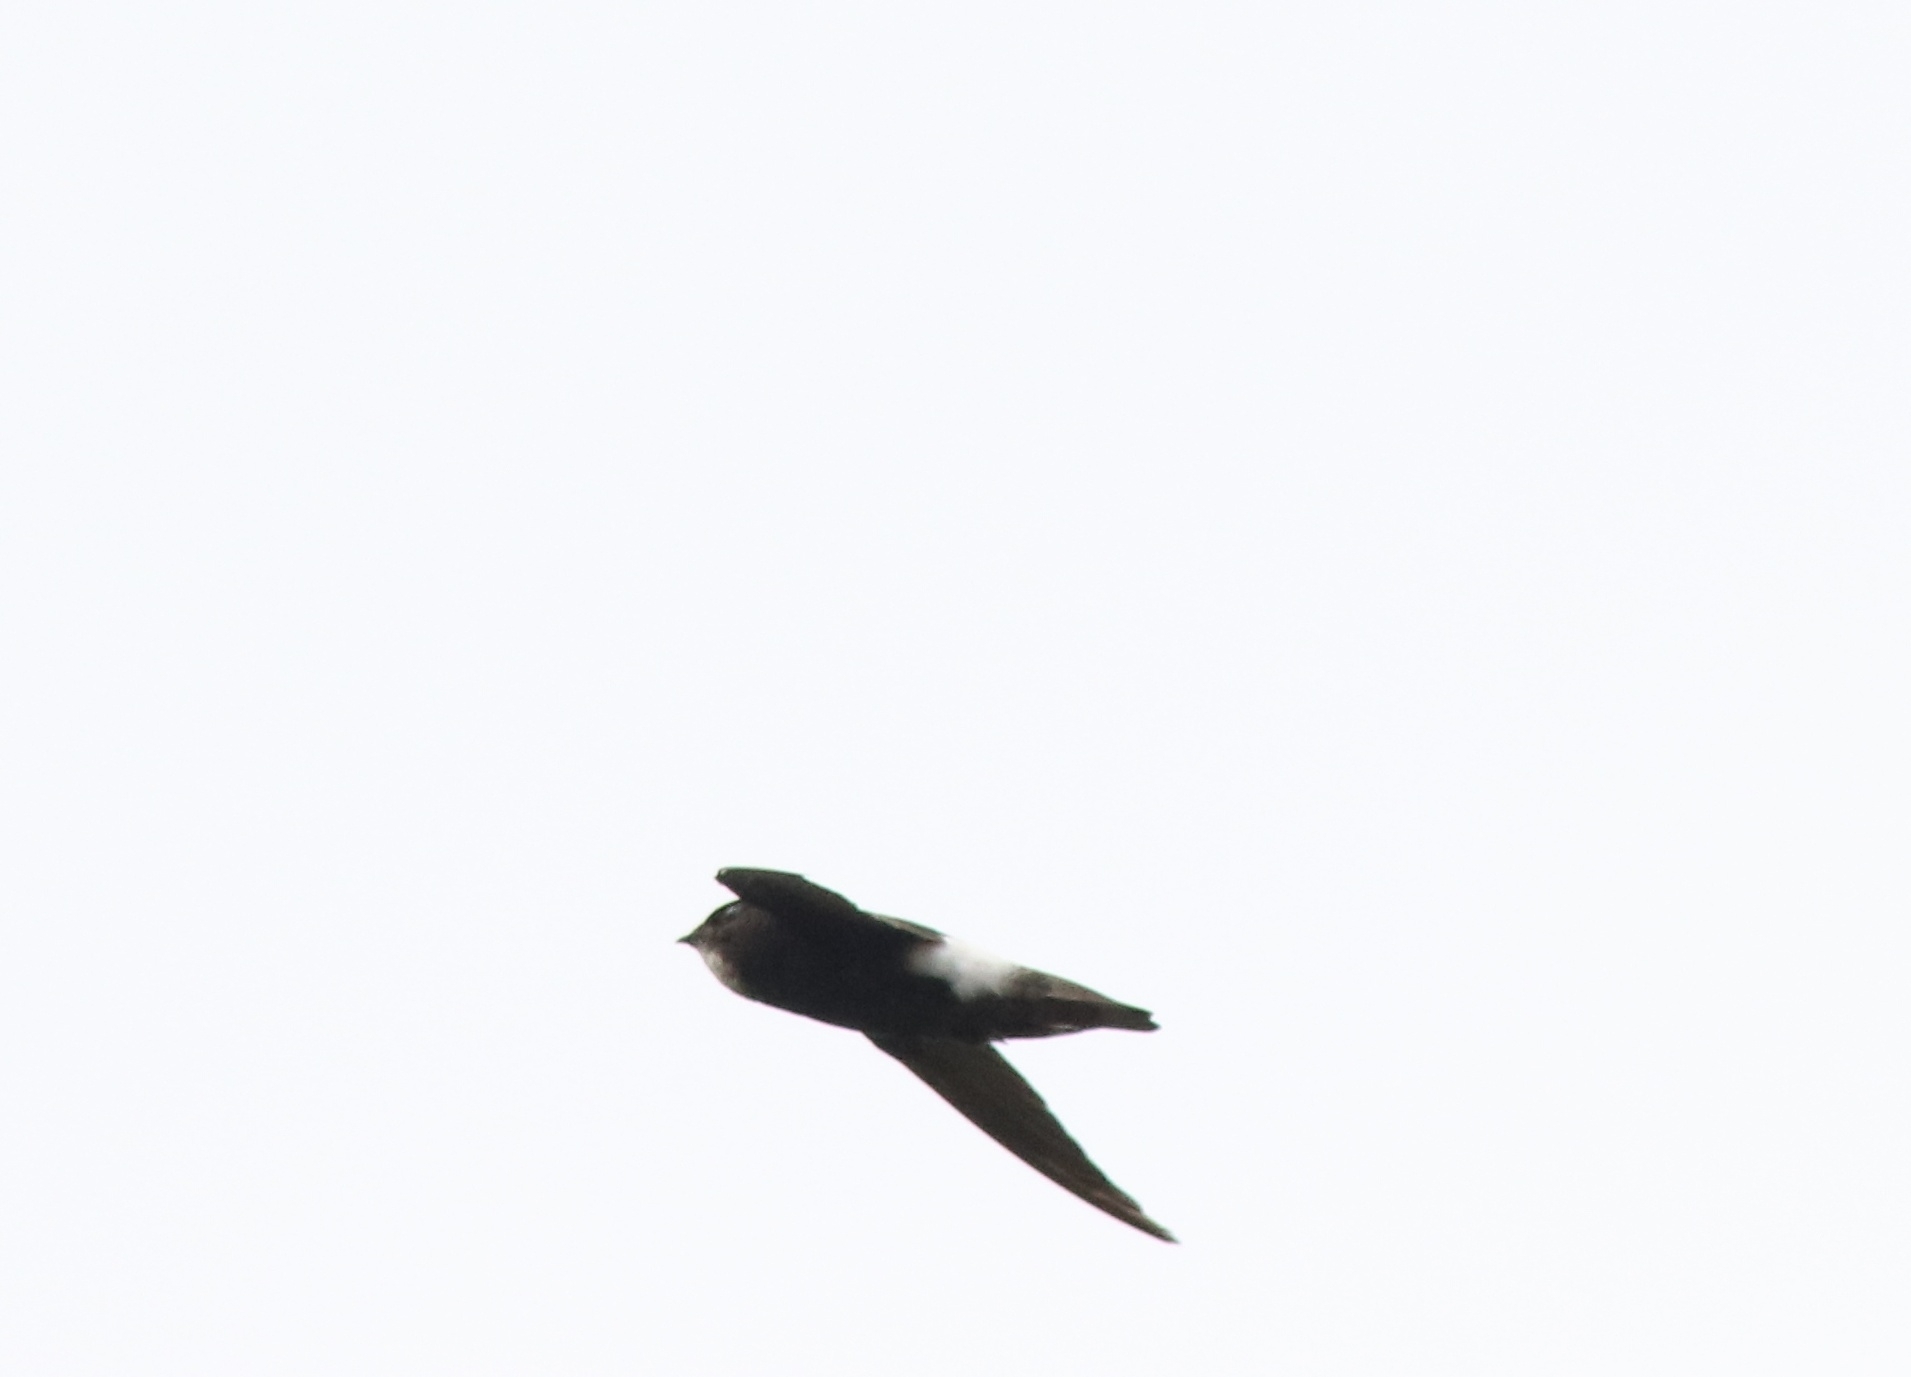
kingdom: Animalia
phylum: Chordata
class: Aves
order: Apodiformes
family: Apodidae
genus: Apus
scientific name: Apus affinis
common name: Little swift
